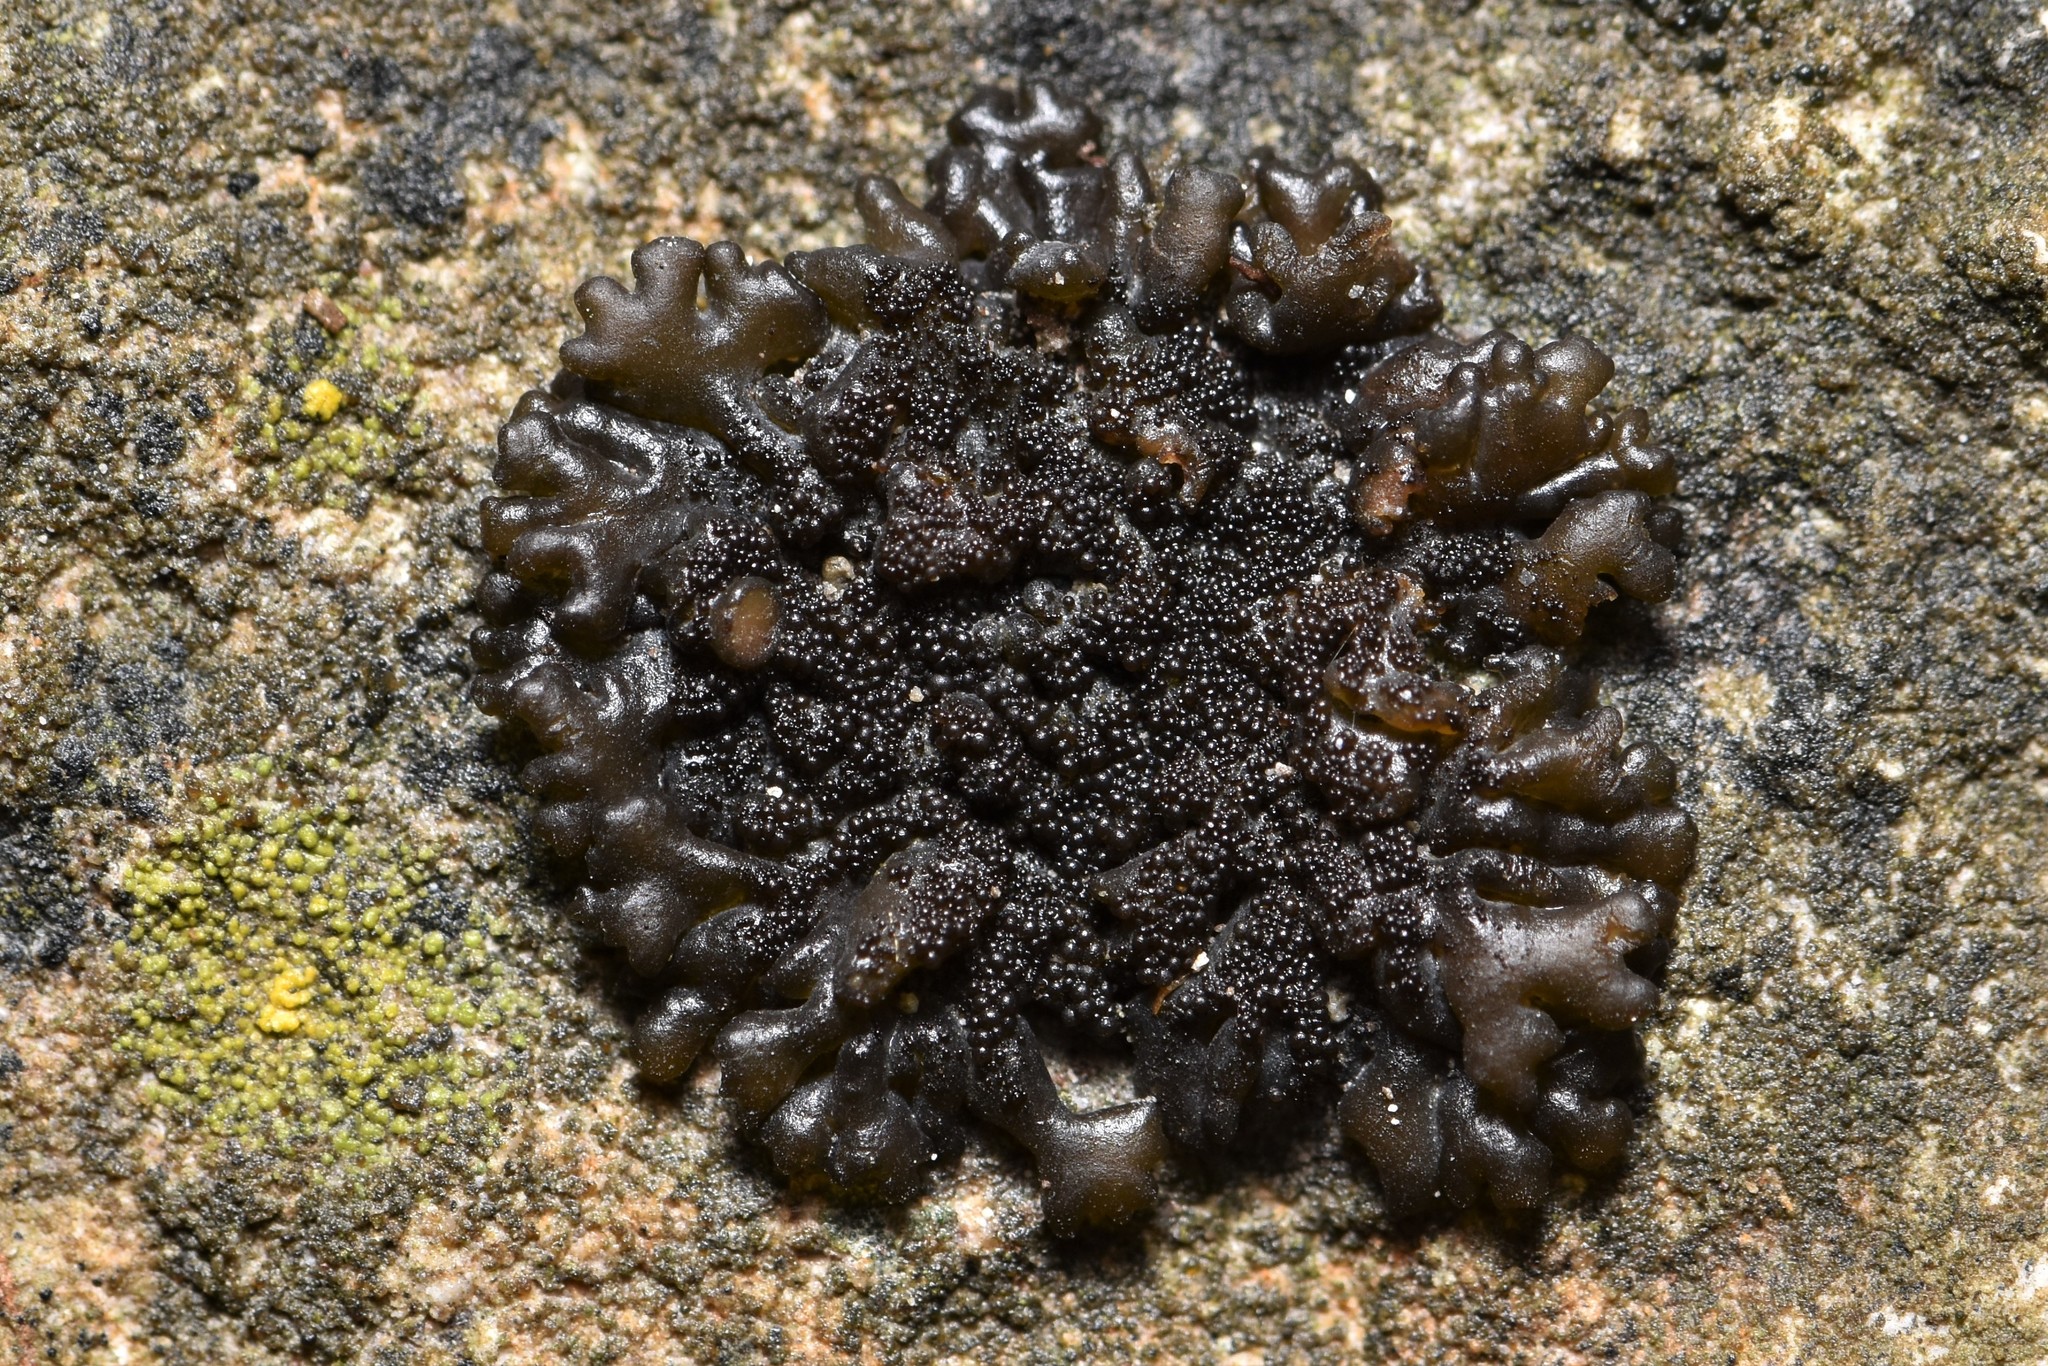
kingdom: Fungi
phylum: Ascomycota
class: Lecanoromycetes
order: Peltigerales
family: Collemataceae
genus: Lathagrium
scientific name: Lathagrium fuscovirens
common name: Crumpled rock tarpaper lichen
